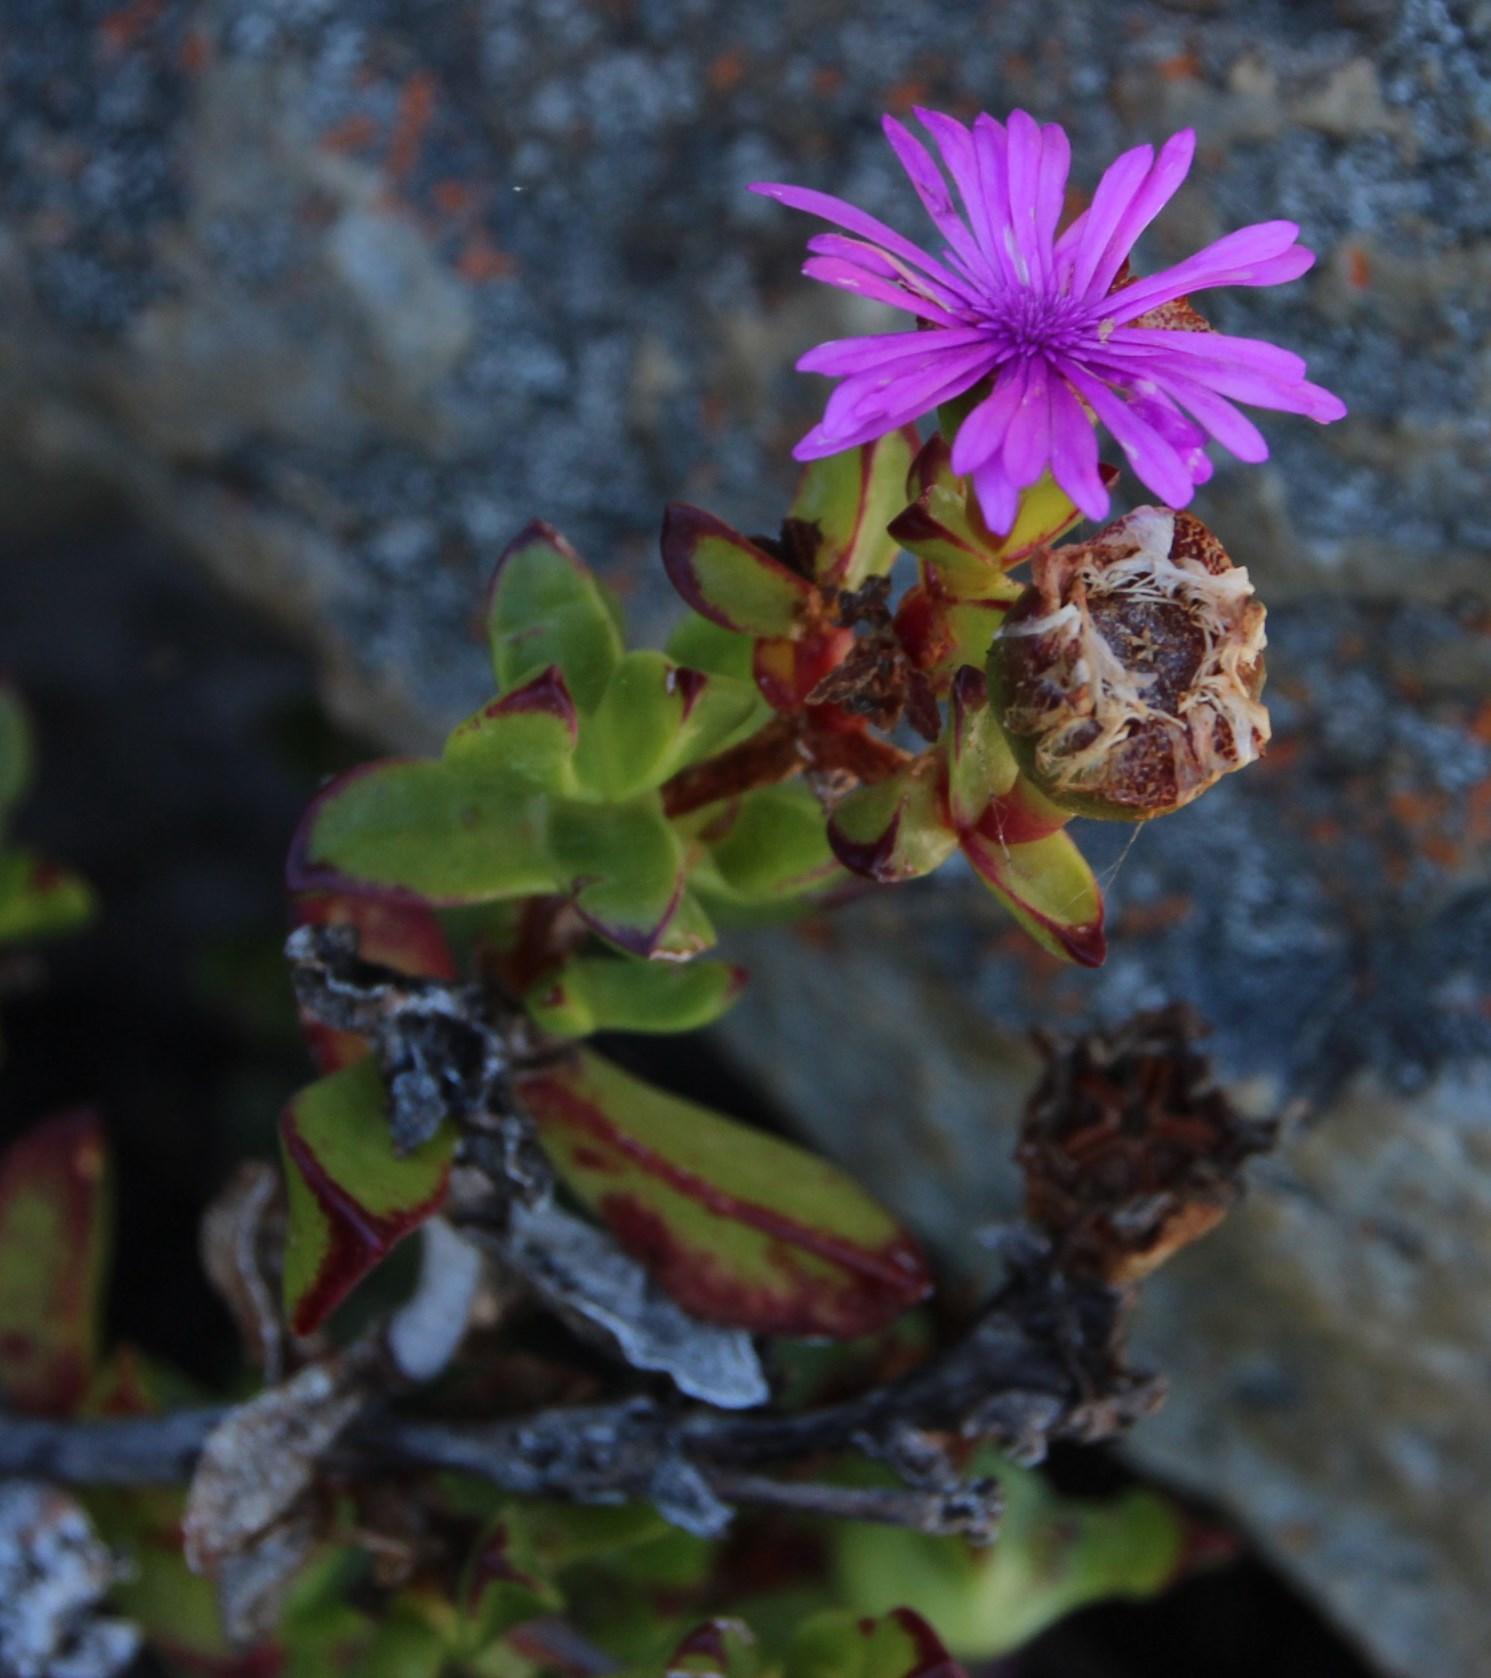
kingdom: Plantae
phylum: Tracheophyta
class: Magnoliopsida
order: Caryophyllales
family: Aizoaceae
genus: Erepsia
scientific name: Erepsia inclaudens
